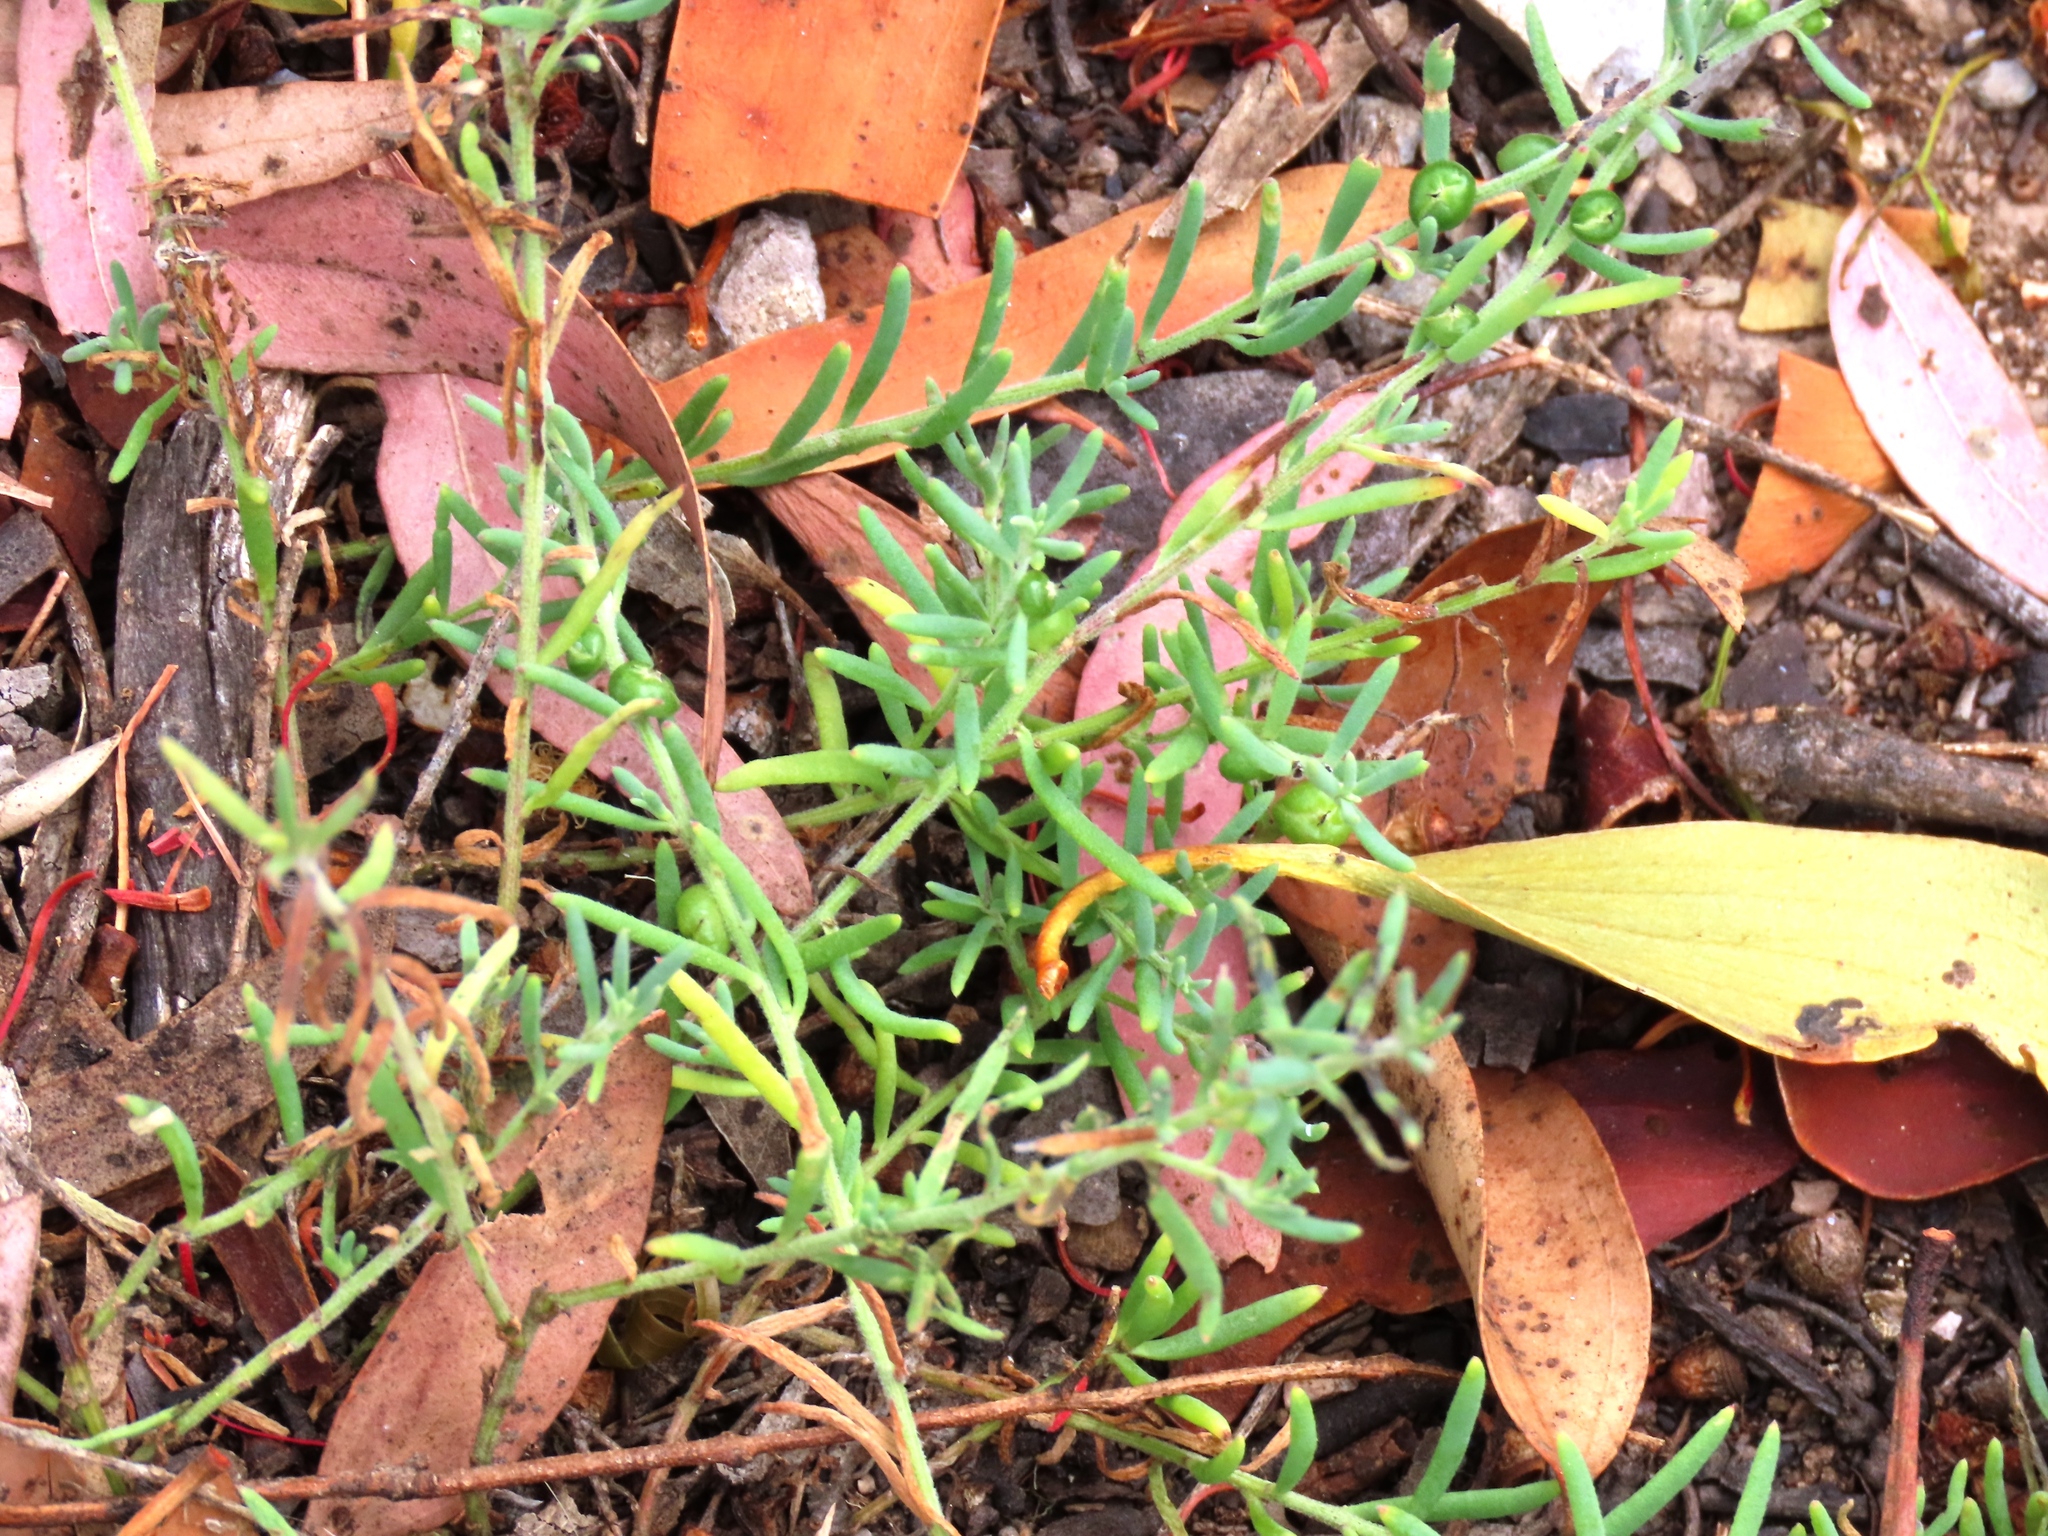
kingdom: Plantae
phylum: Tracheophyta
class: Magnoliopsida
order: Caryophyllales
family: Amaranthaceae
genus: Enchylaena
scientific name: Enchylaena tomentosa
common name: Ruby saltbush
